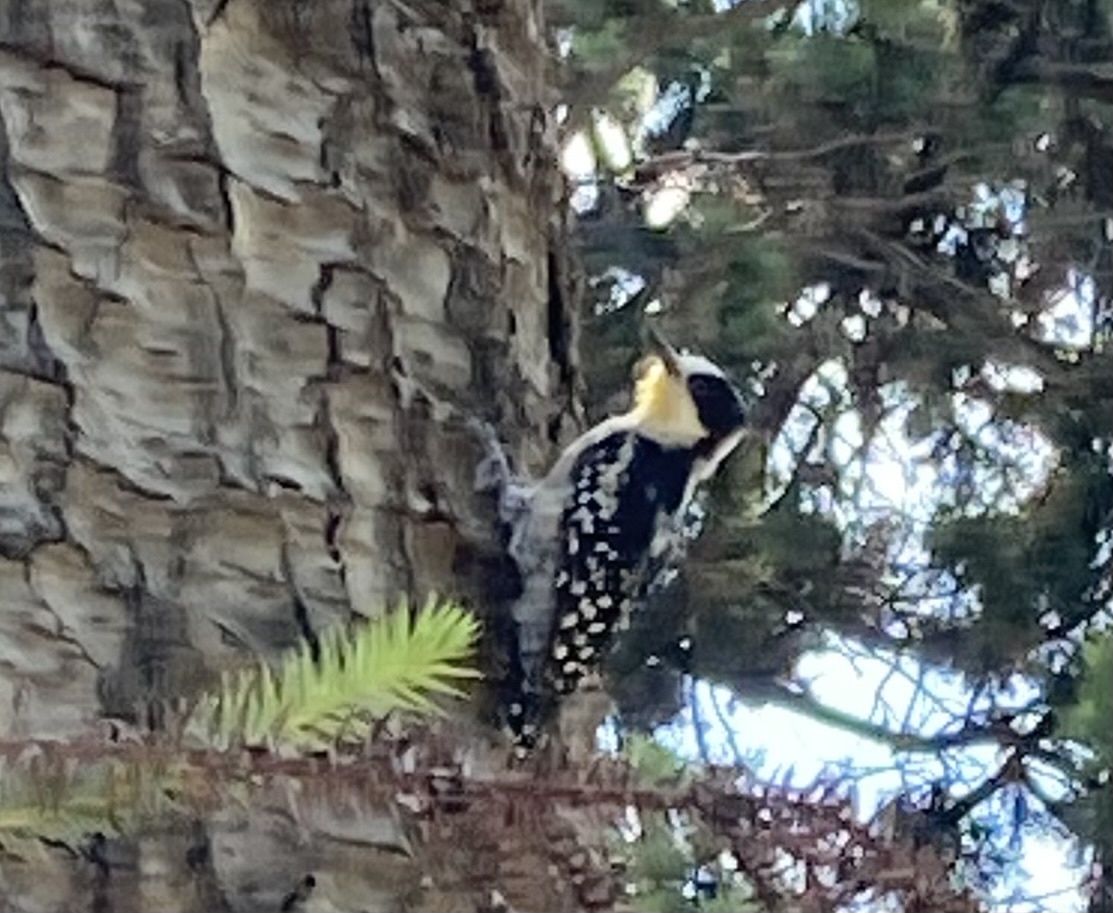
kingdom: Animalia
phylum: Chordata
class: Aves
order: Piciformes
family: Picidae
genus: Melanerpes
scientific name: Melanerpes cactorum
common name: White-fronted woodpecker
